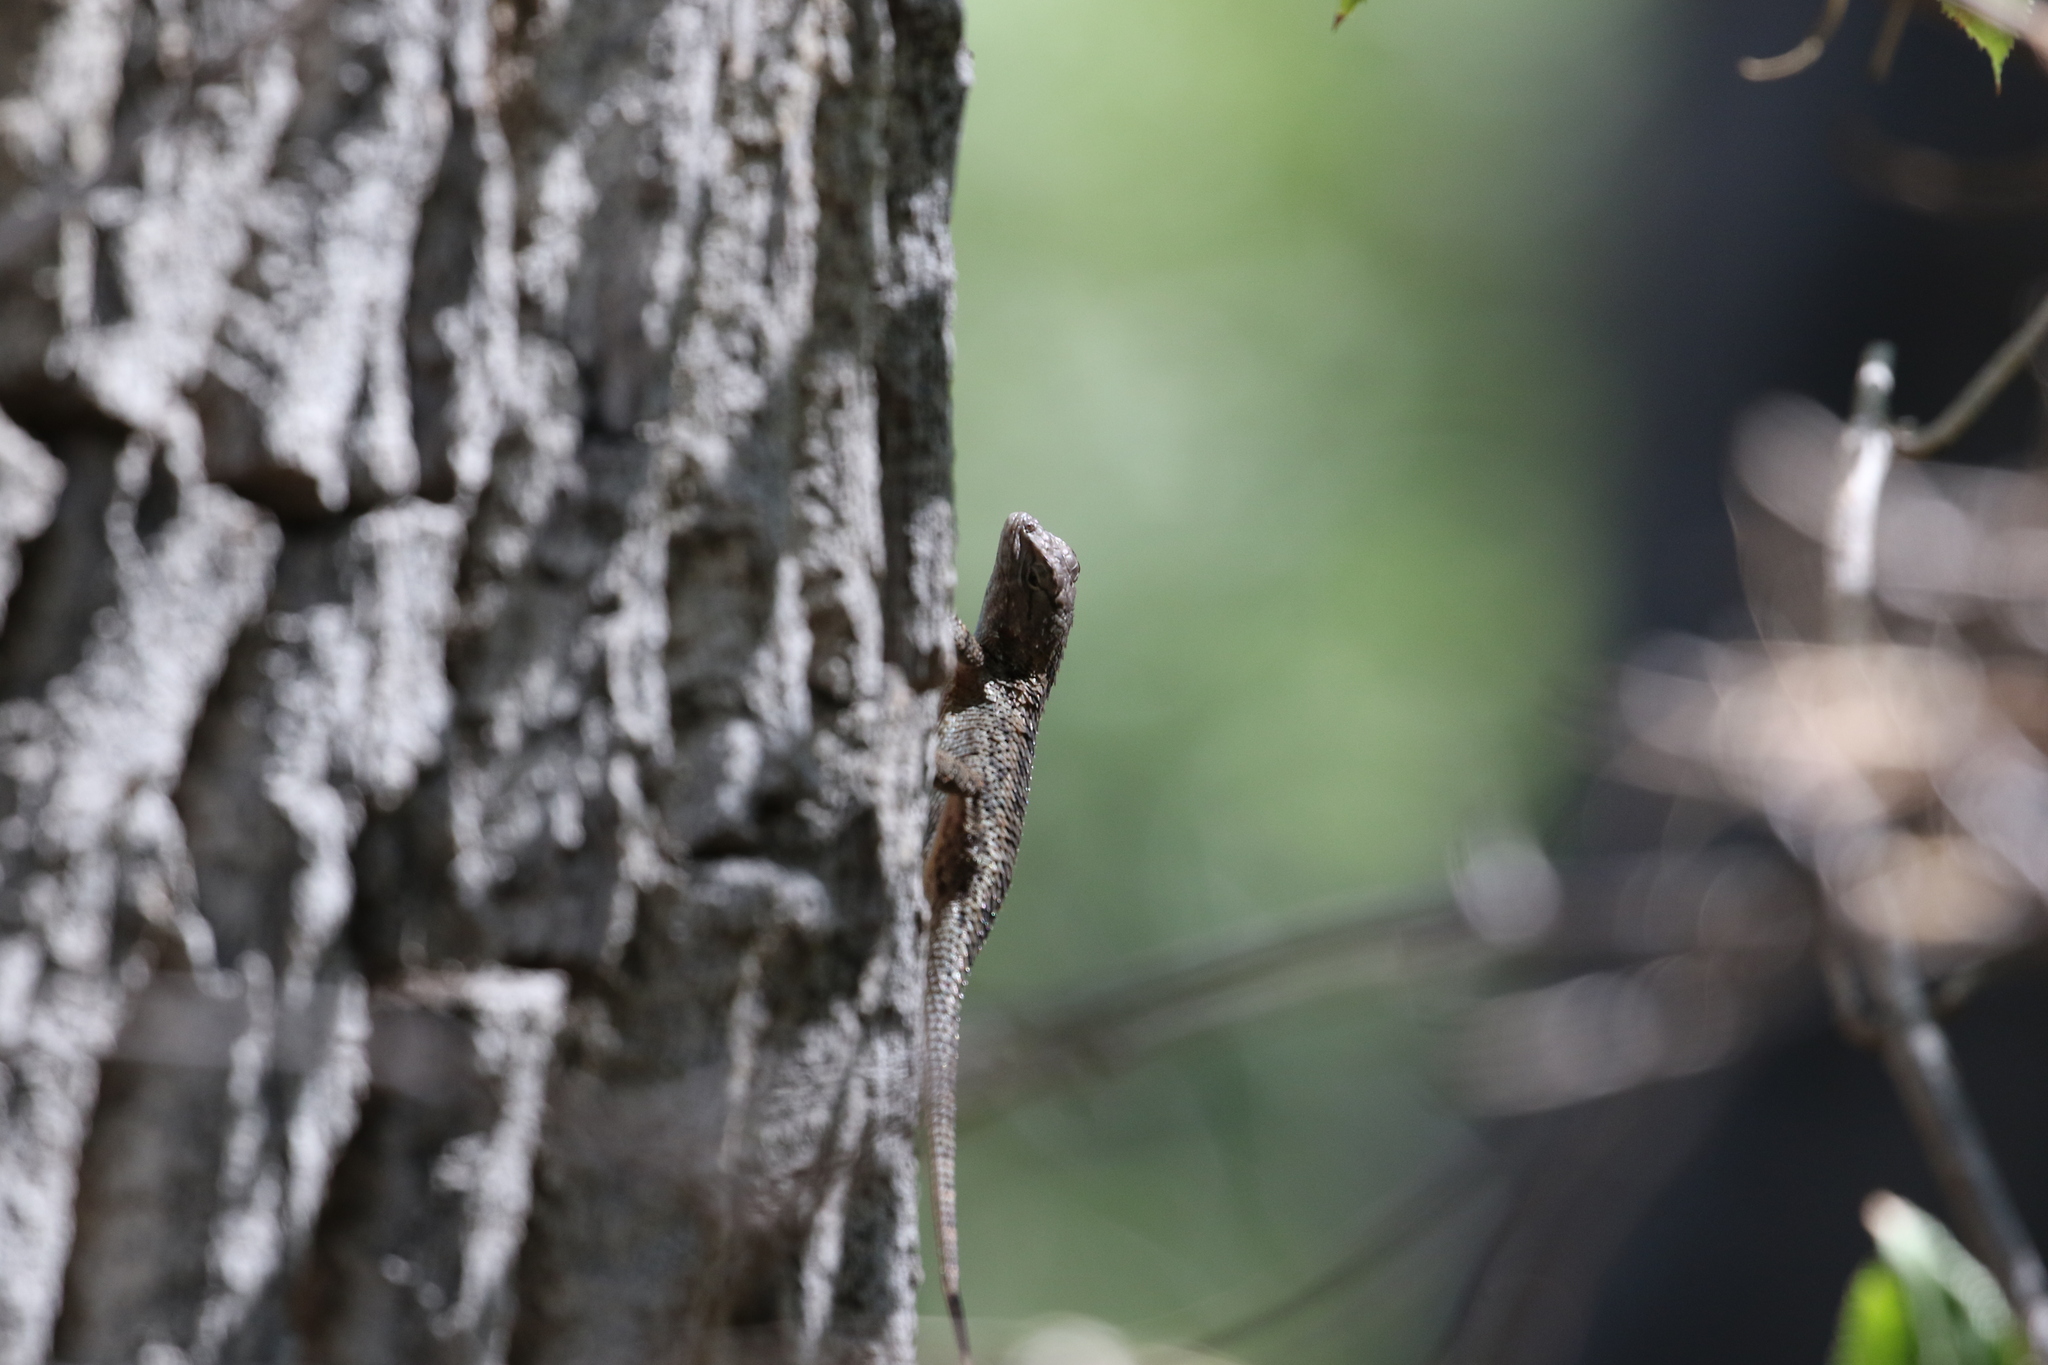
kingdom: Animalia
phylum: Chordata
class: Squamata
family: Phrynosomatidae
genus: Sceloporus
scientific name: Sceloporus clarkii
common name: Clark's spiny lizard
